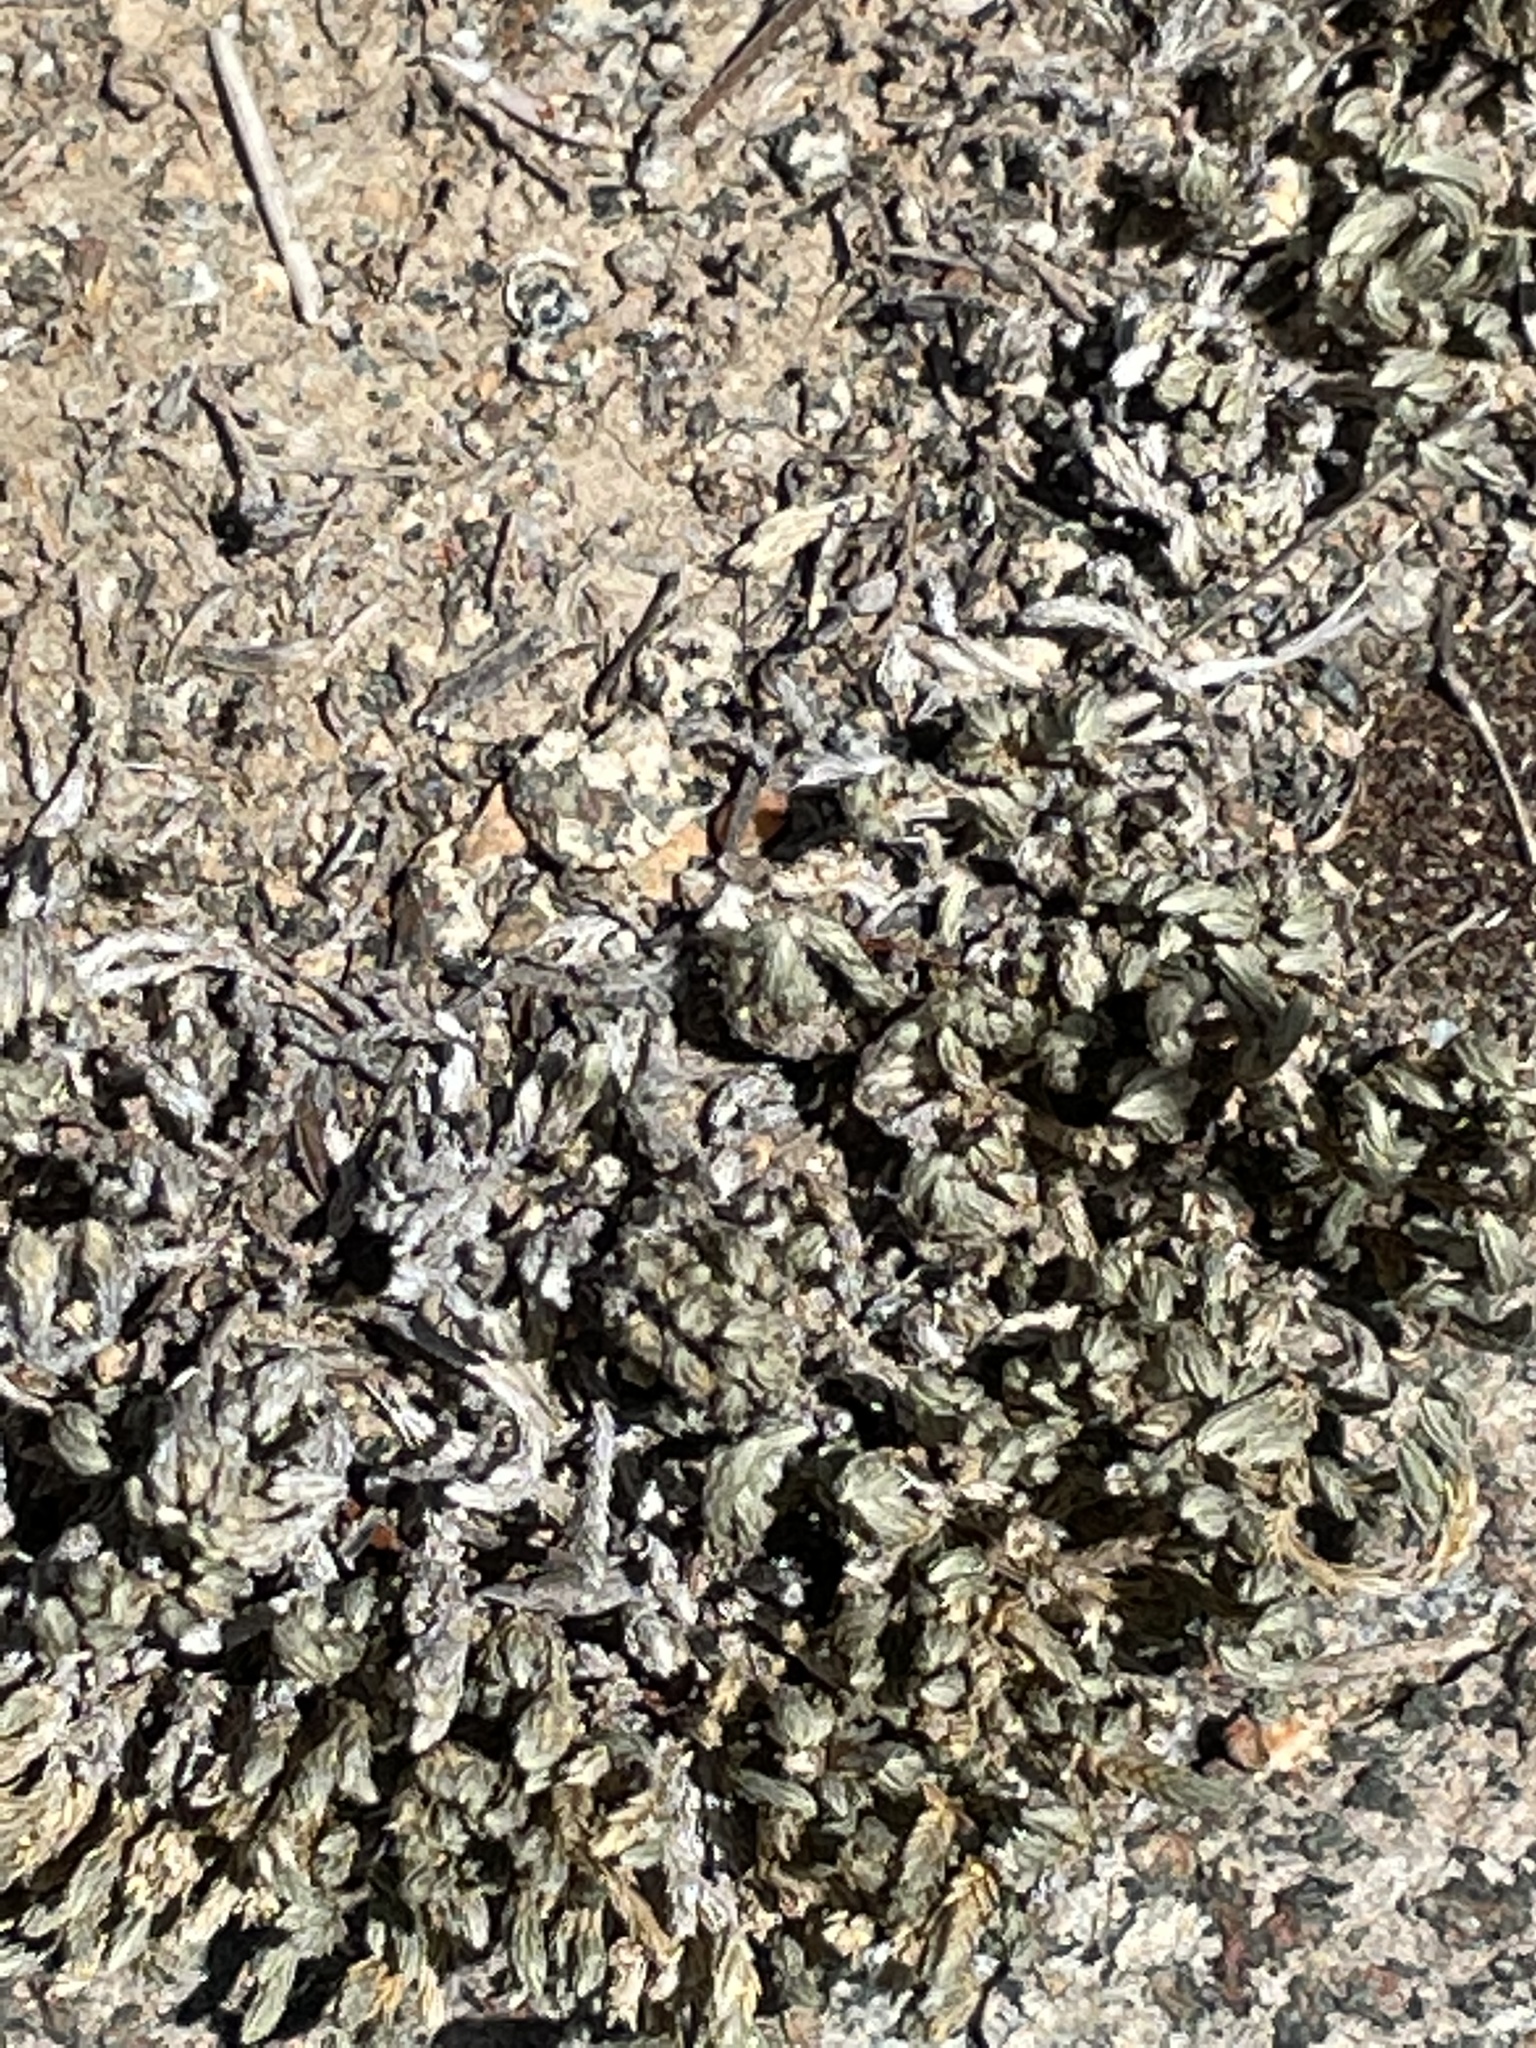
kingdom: Plantae
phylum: Tracheophyta
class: Lycopodiopsida
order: Selaginellales
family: Selaginellaceae
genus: Selaginella
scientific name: Selaginella bigelovii
